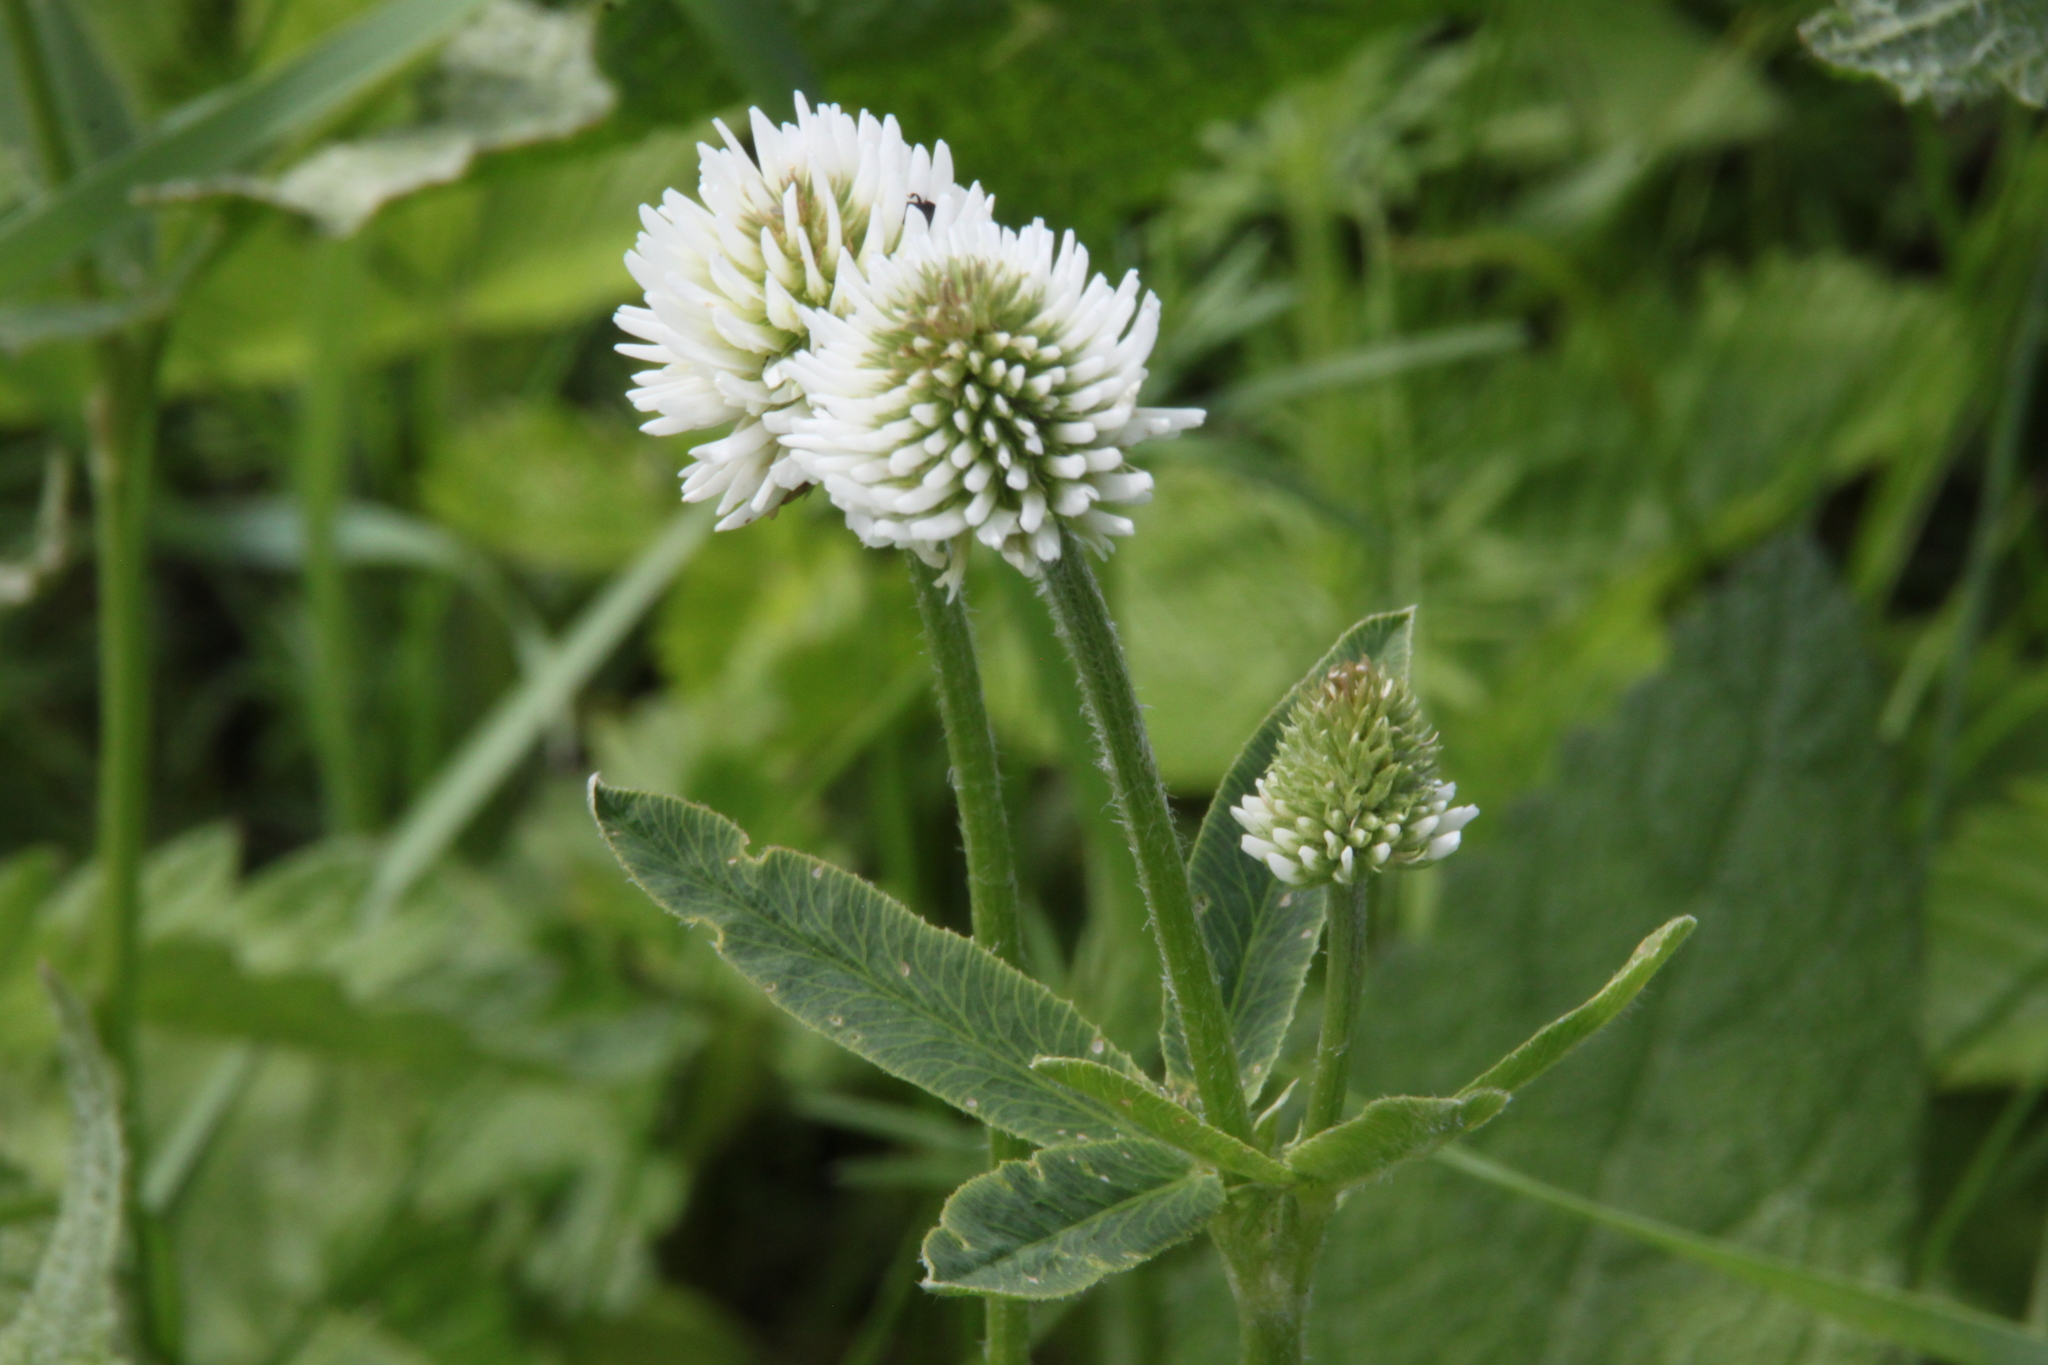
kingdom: Plantae
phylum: Tracheophyta
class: Magnoliopsida
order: Fabales
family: Fabaceae
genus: Trifolium
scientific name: Trifolium montanum
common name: Mountain clover
